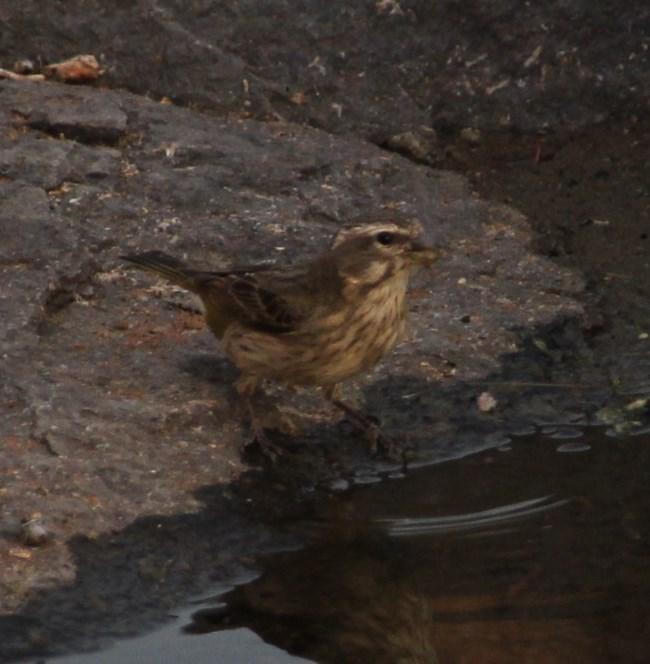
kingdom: Animalia
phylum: Chordata
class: Aves
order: Passeriformes
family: Fringillidae
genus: Crithagra
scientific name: Crithagra flaviventris
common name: Yellow canary
